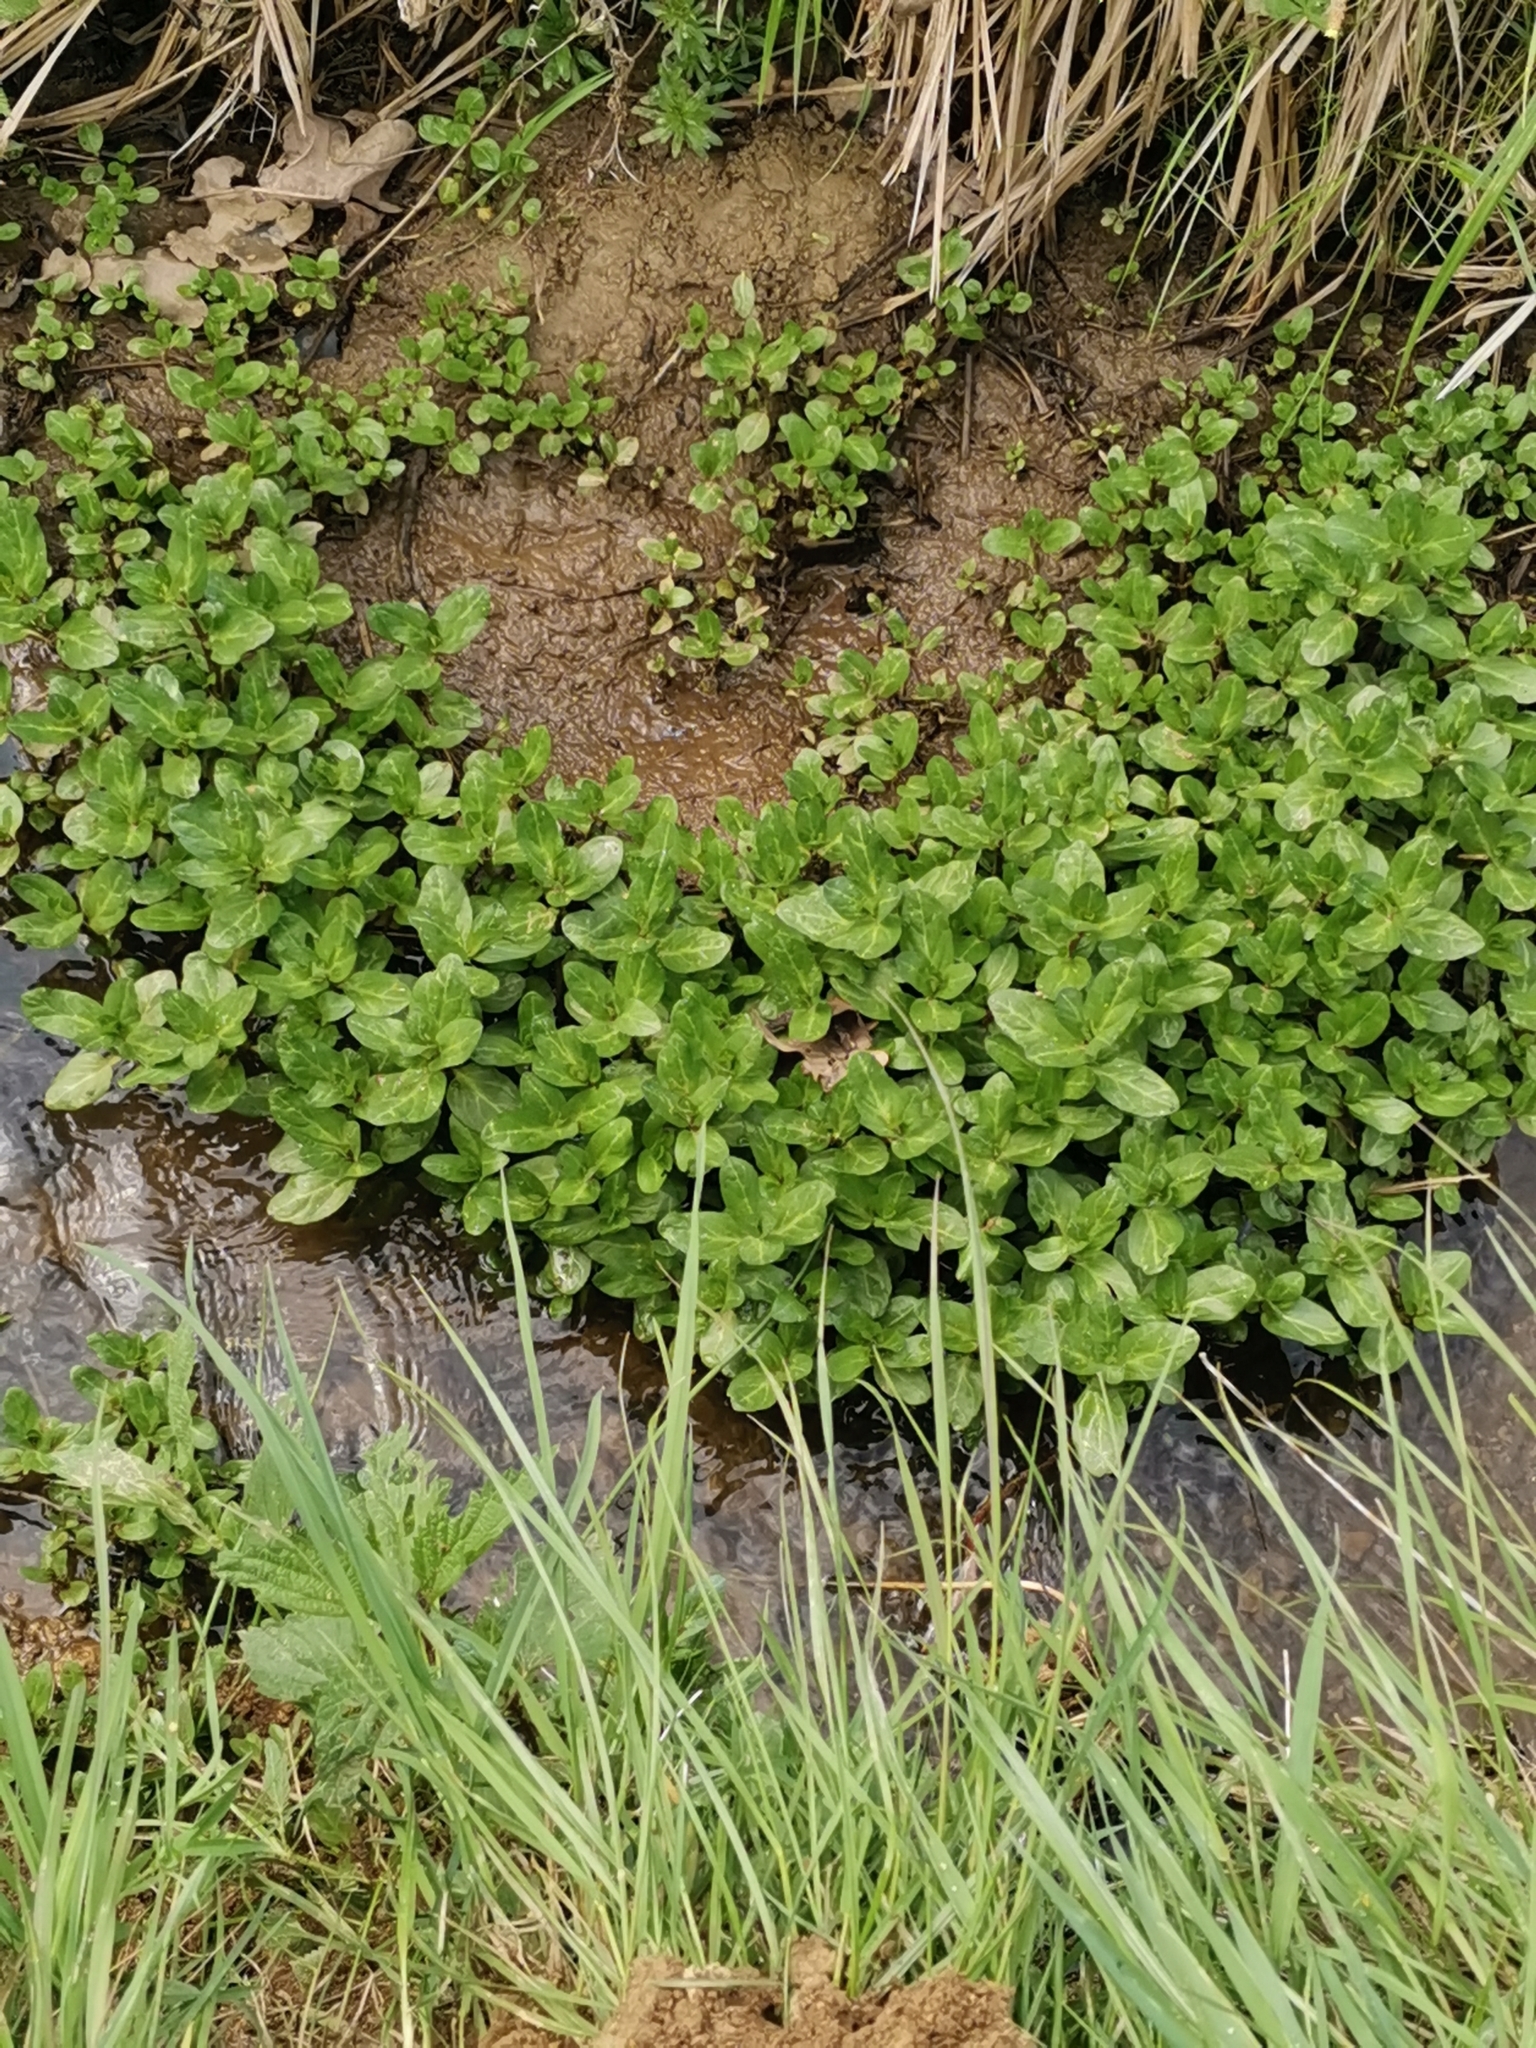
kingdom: Plantae
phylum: Tracheophyta
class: Magnoliopsida
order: Lamiales
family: Plantaginaceae
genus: Veronica
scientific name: Veronica beccabunga
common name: Brooklime
